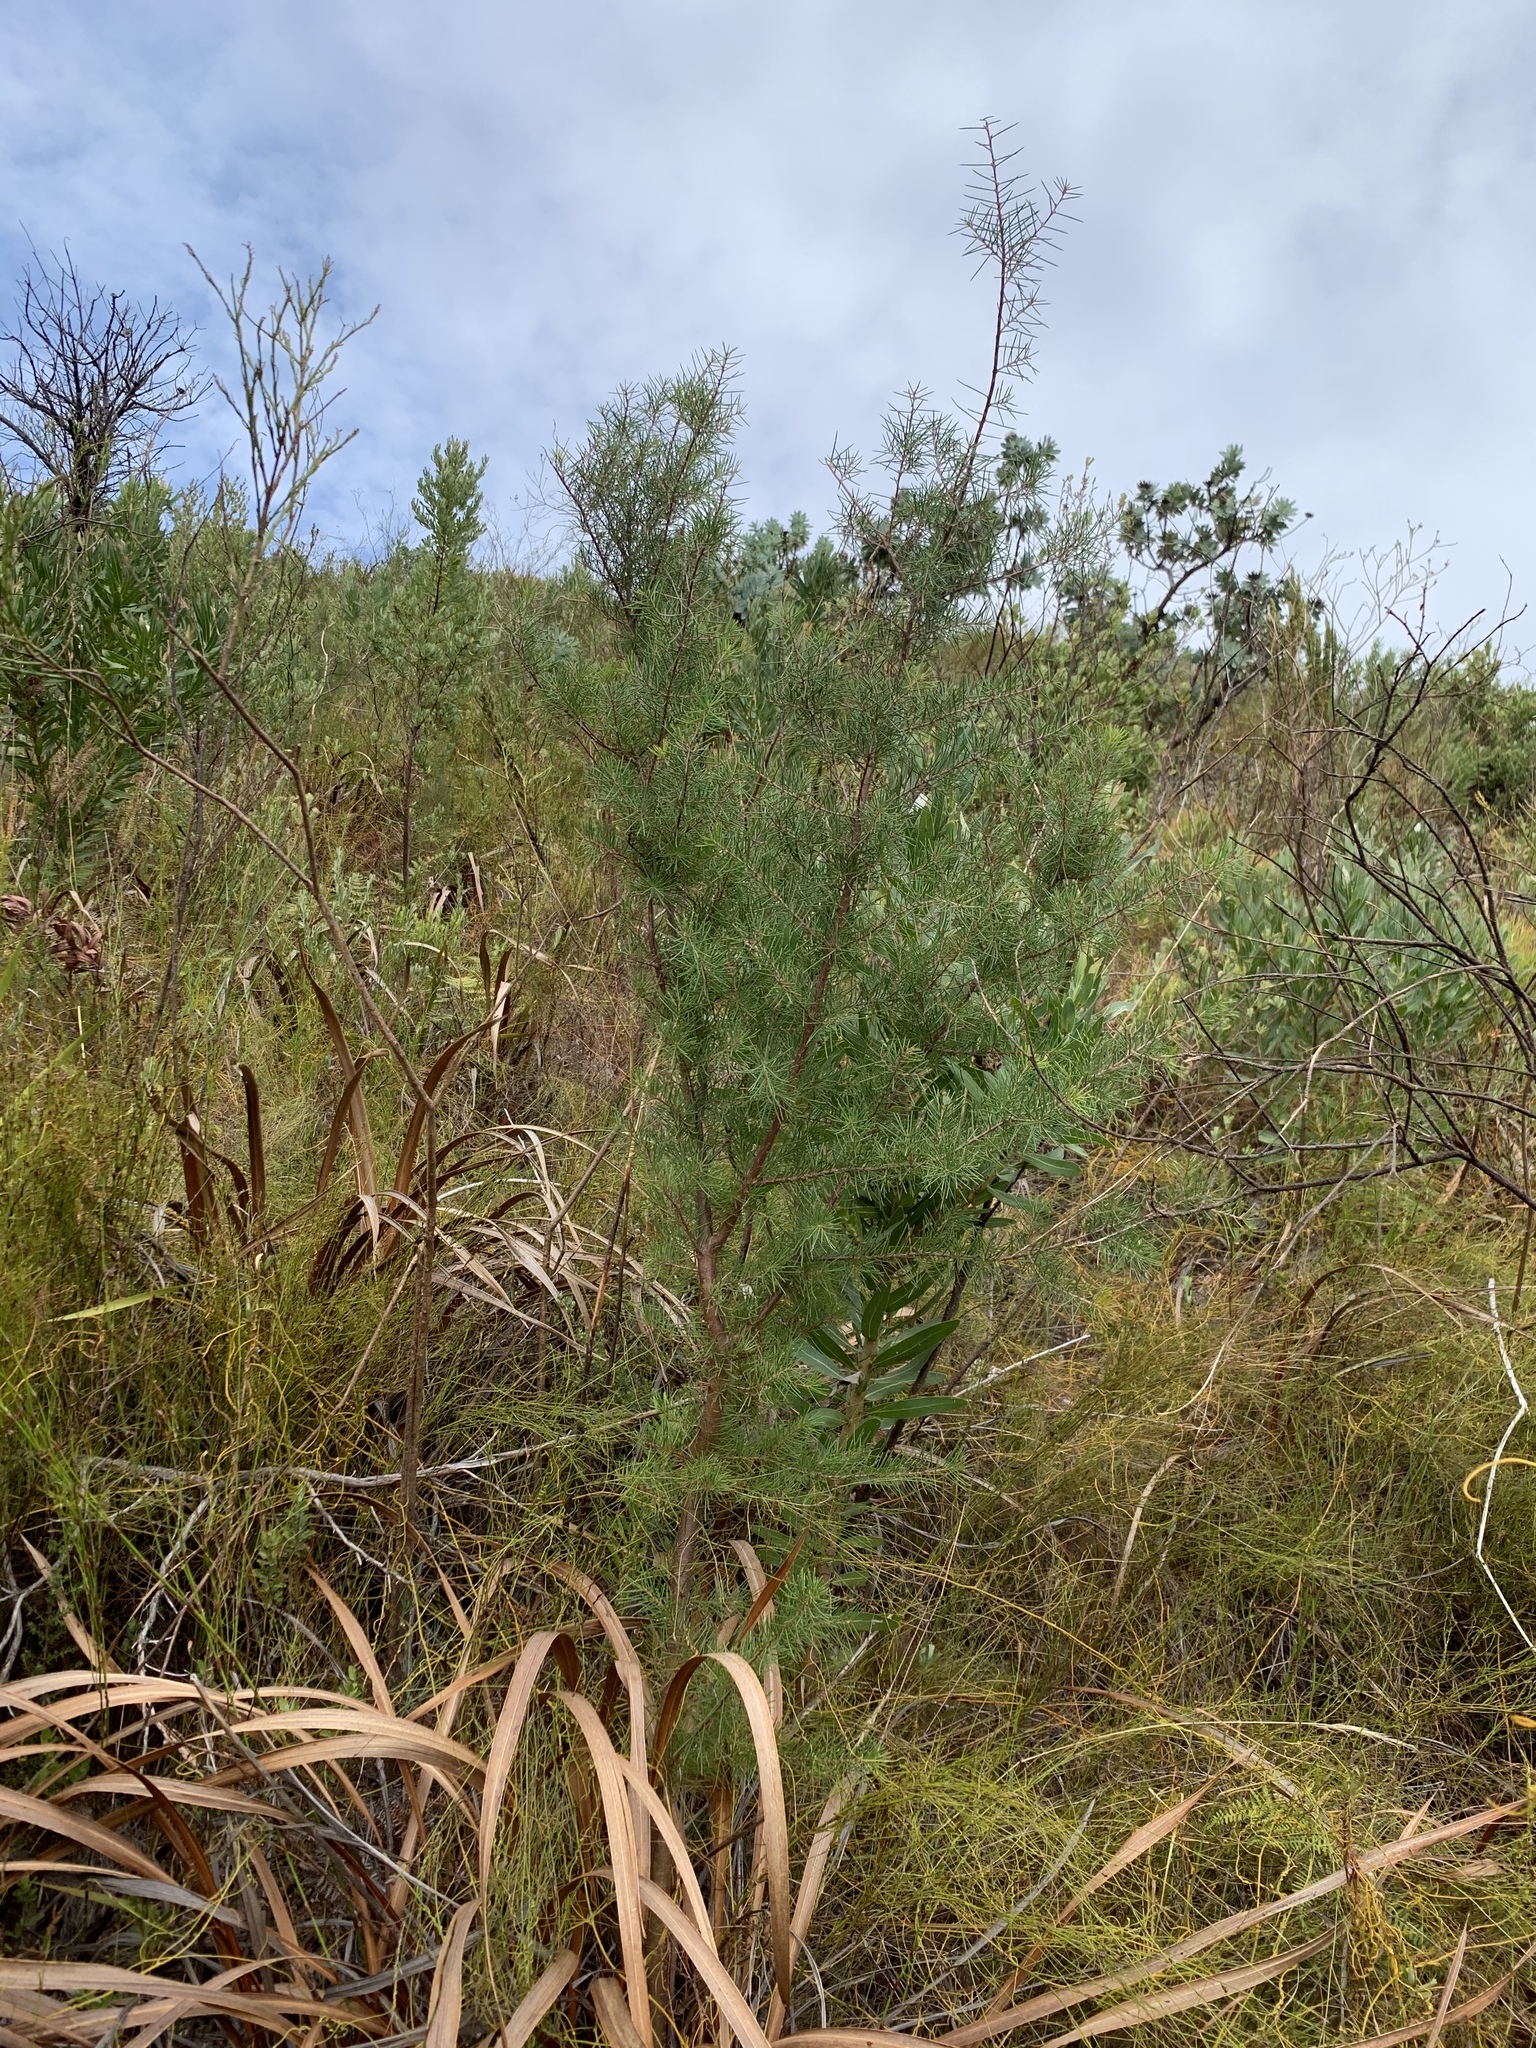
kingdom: Plantae
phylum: Tracheophyta
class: Magnoliopsida
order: Proteales
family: Proteaceae
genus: Hakea
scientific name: Hakea sericea
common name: Needle bush
